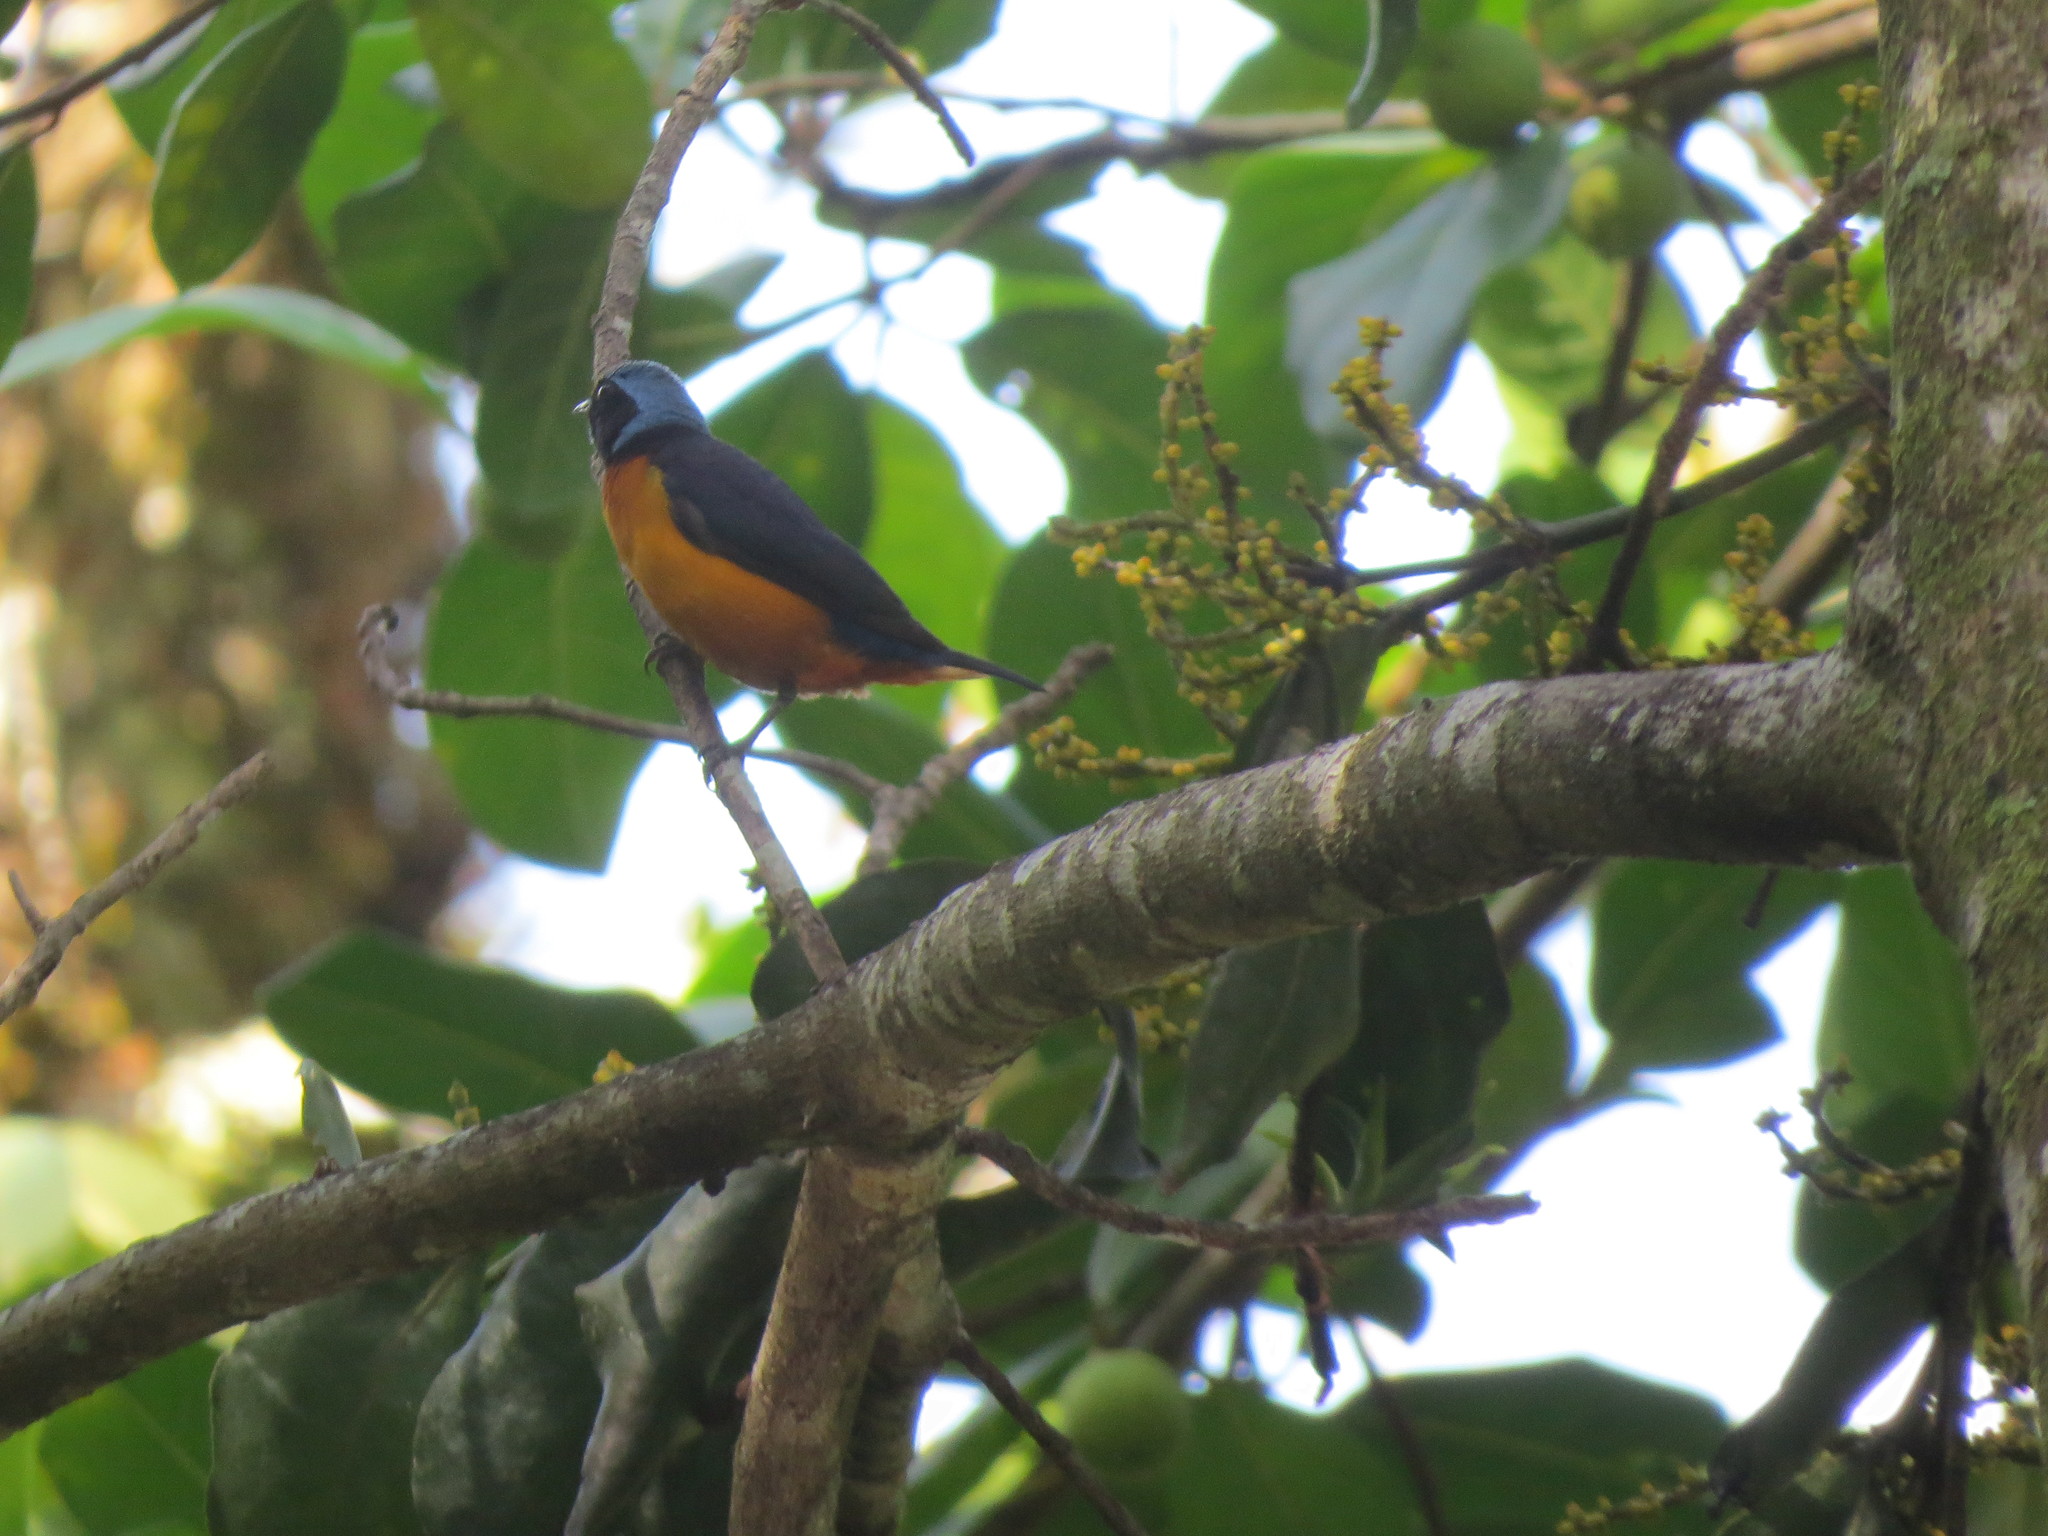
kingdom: Animalia
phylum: Chordata
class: Aves
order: Passeriformes
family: Fringillidae
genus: Euphonia
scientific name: Euphonia elegantissima
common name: Elegant euphonia
